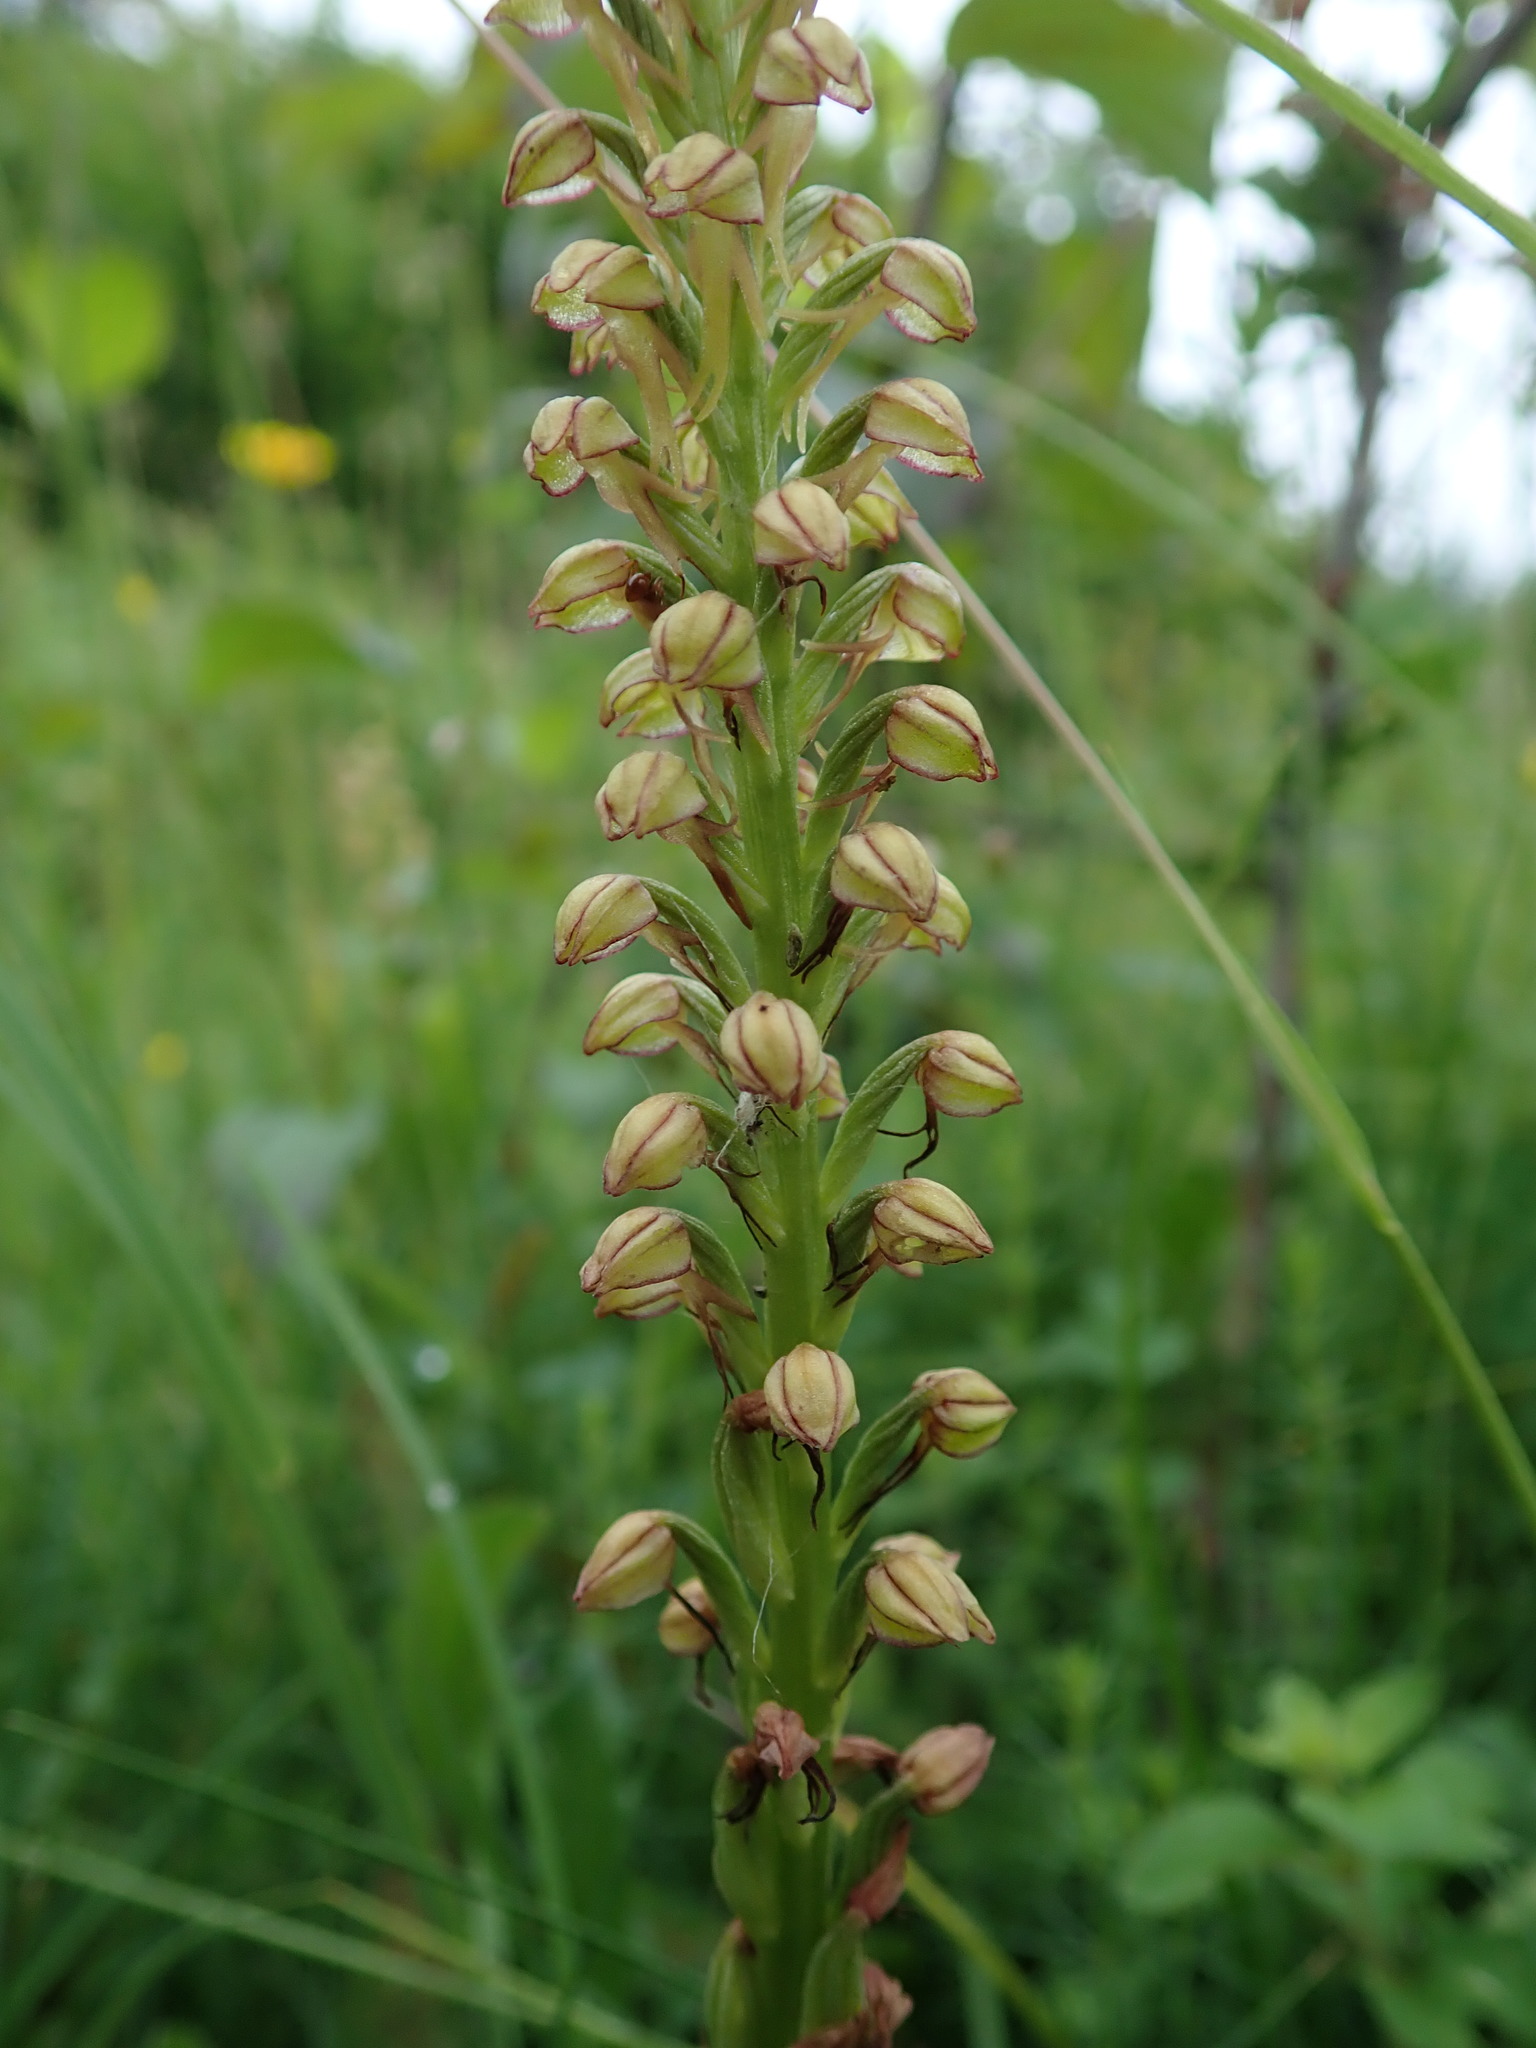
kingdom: Plantae
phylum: Tracheophyta
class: Liliopsida
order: Asparagales
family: Orchidaceae
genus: Orchis
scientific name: Orchis anthropophora
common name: Man orchid
